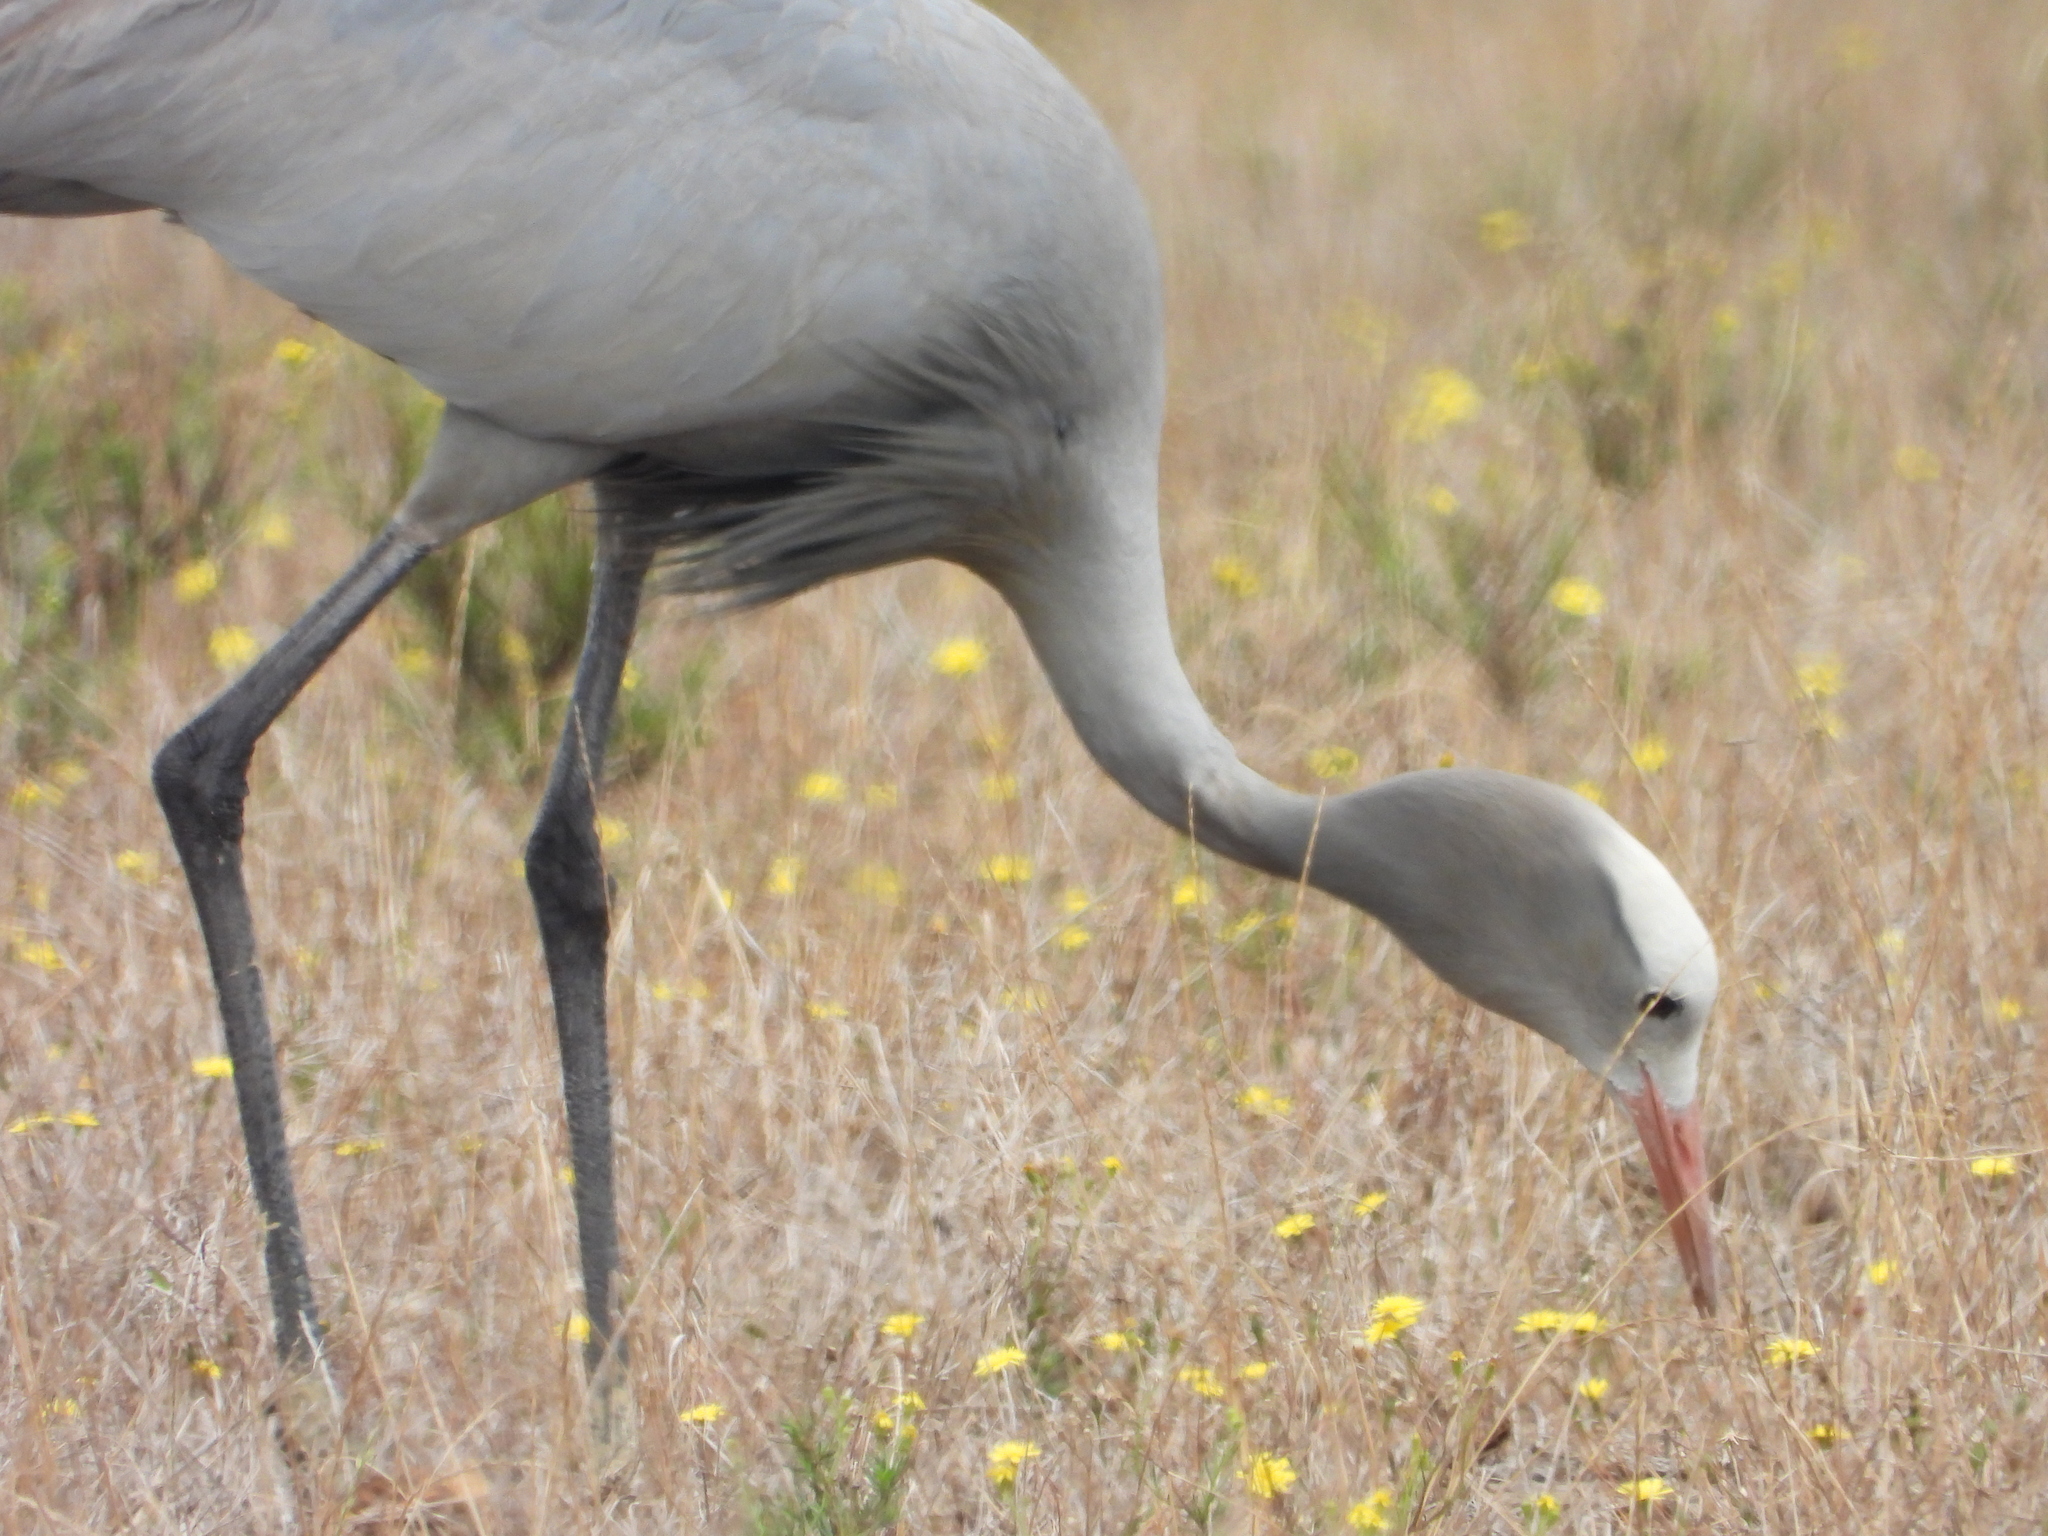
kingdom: Animalia
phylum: Chordata
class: Aves
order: Gruiformes
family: Gruidae
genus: Anthropoides
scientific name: Anthropoides paradiseus
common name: Blue crane
